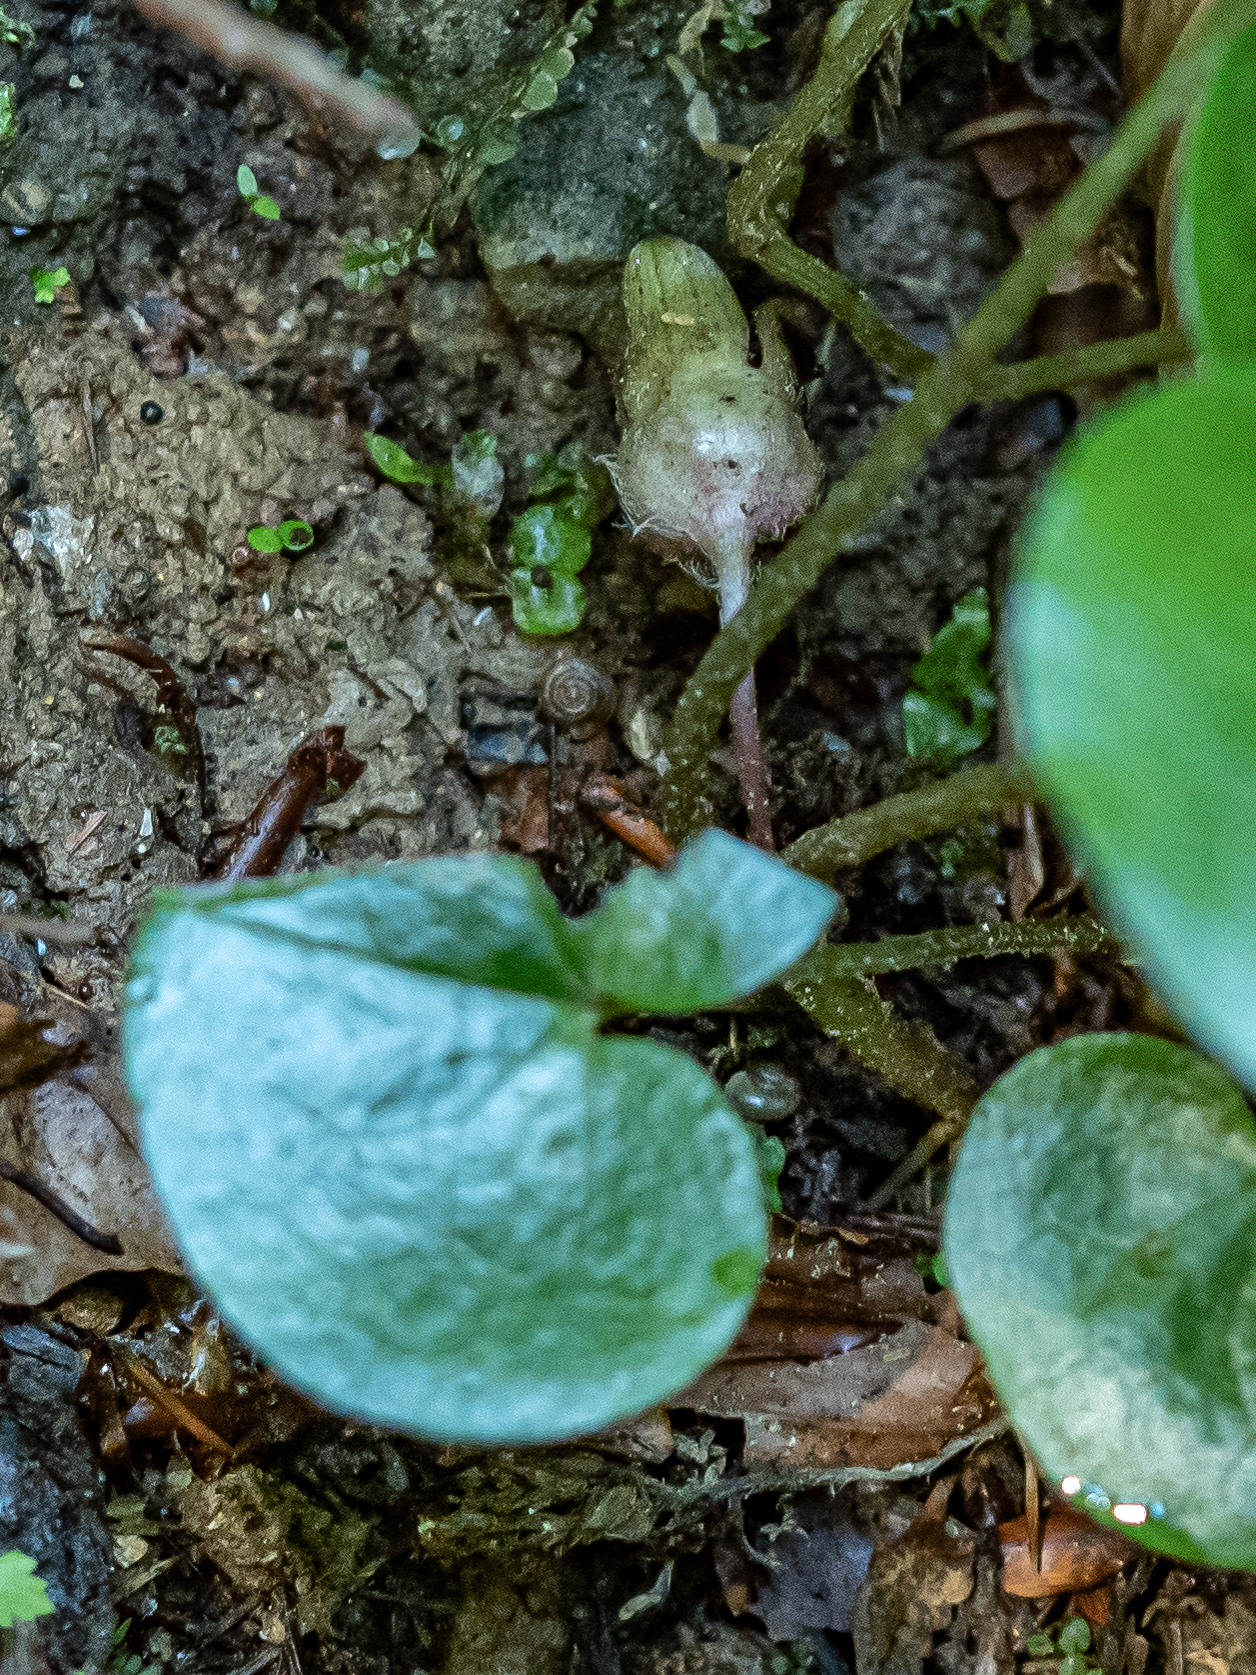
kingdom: Plantae
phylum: Tracheophyta
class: Magnoliopsida
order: Piperales
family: Aristolochiaceae
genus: Asarum
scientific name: Asarum europaeum
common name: Asarabacca
